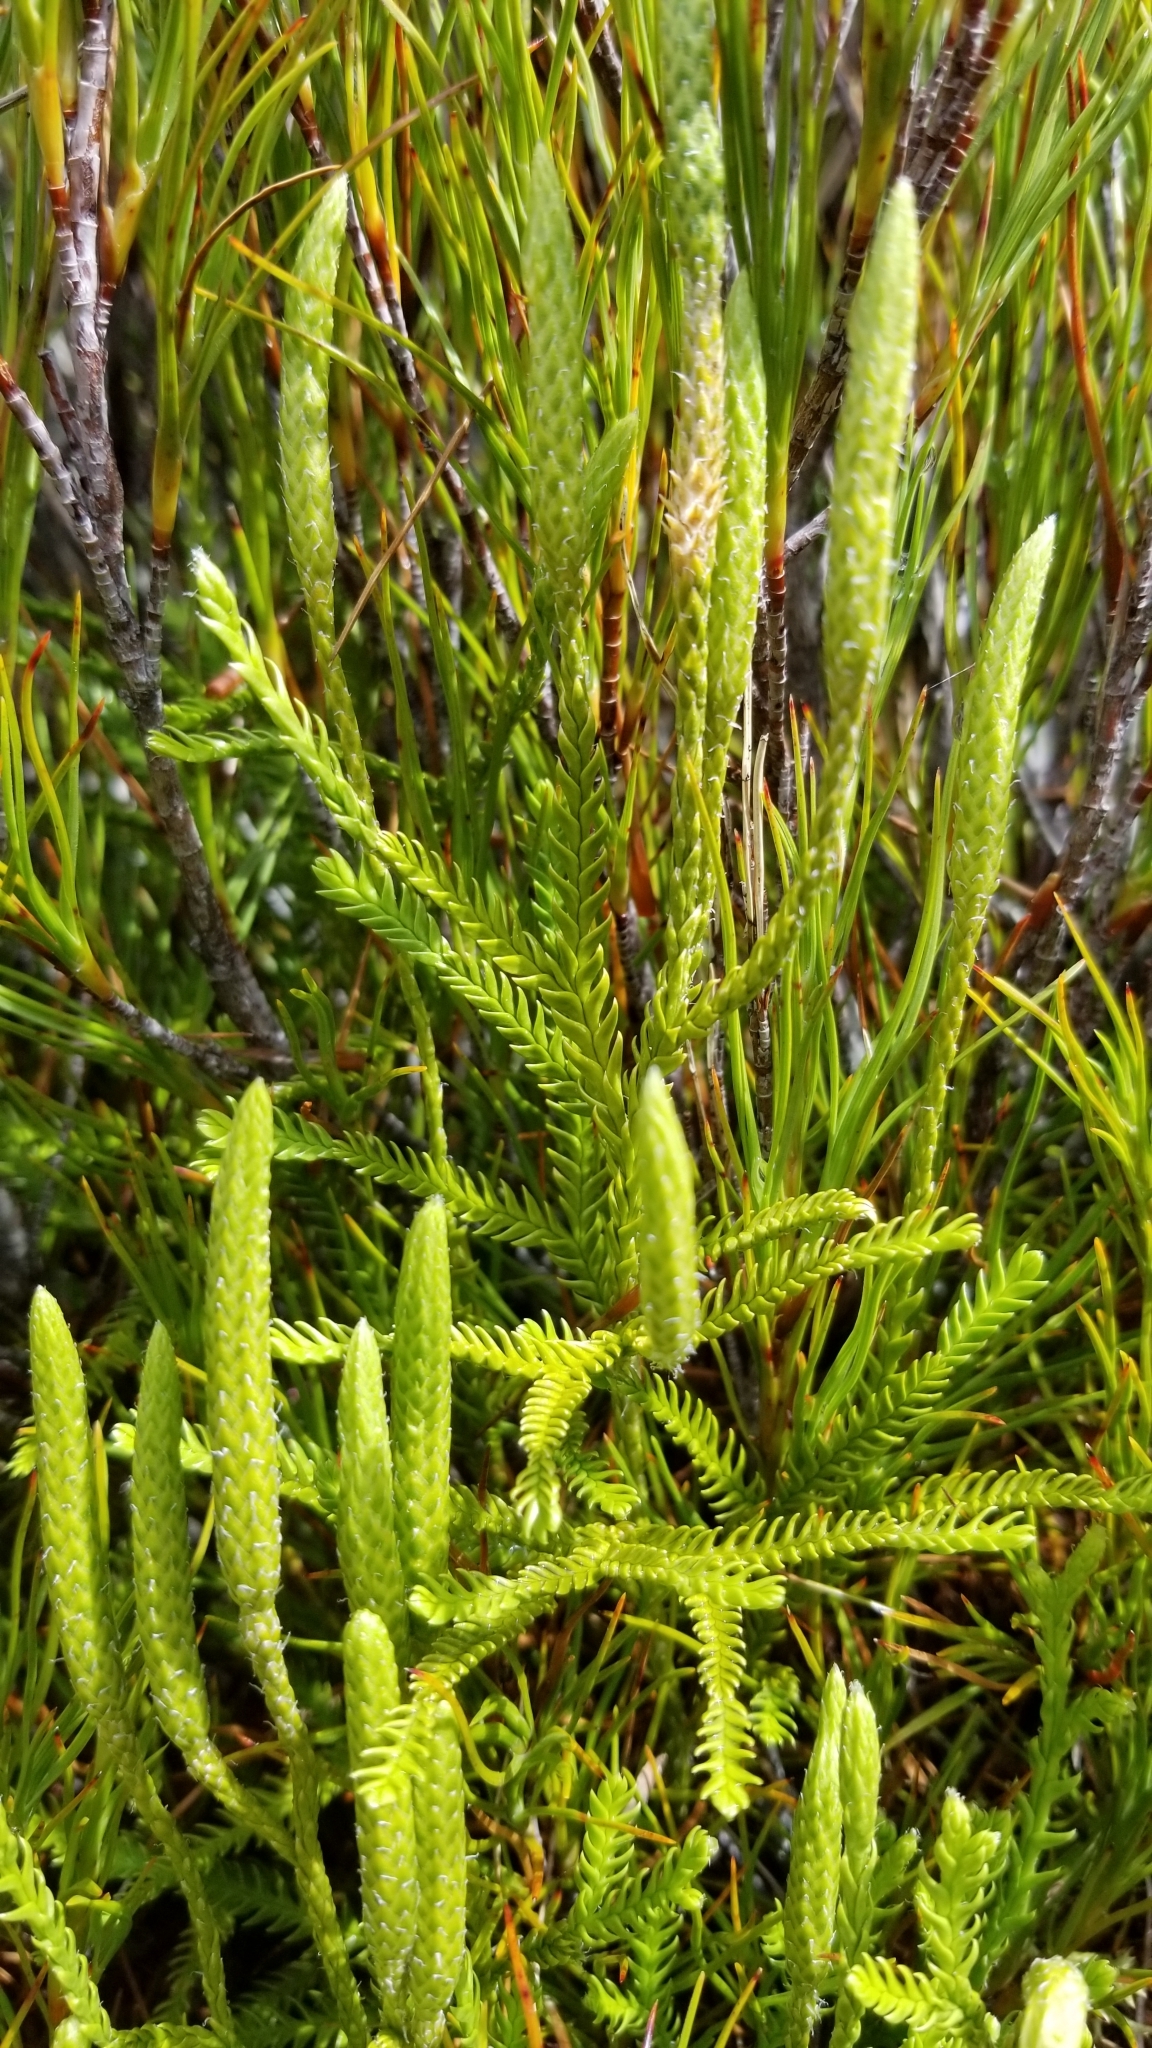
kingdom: Plantae
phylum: Tracheophyta
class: Lycopodiopsida
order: Lycopodiales
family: Lycopodiaceae
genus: Diphasium
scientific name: Diphasium scariosum
